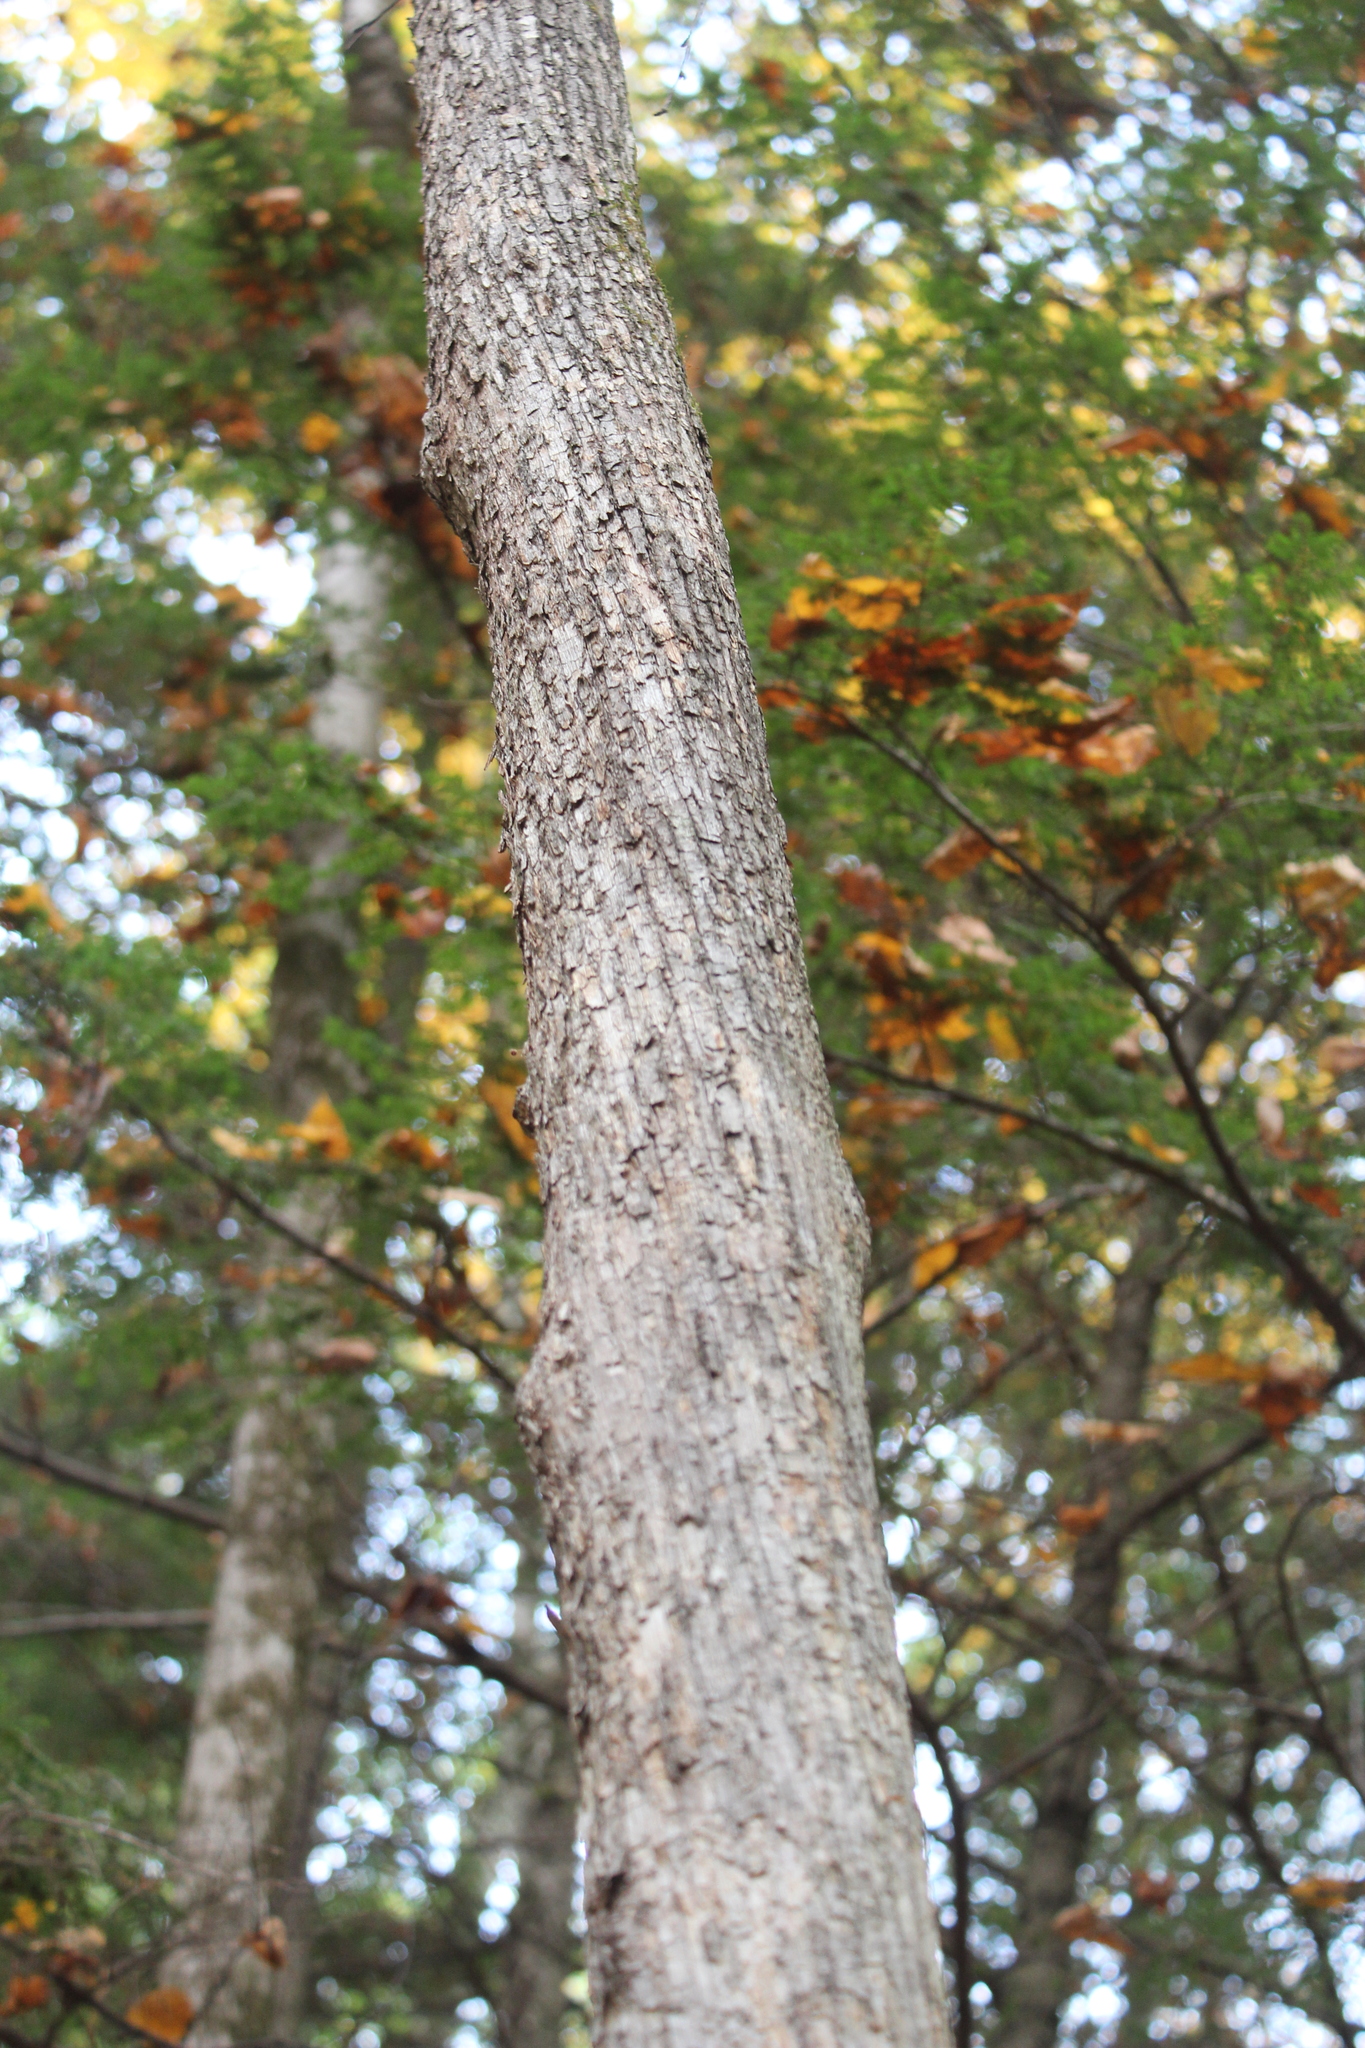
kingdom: Plantae
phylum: Tracheophyta
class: Magnoliopsida
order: Fagales
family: Betulaceae
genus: Ostrya
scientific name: Ostrya virginiana
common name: Ironwood
